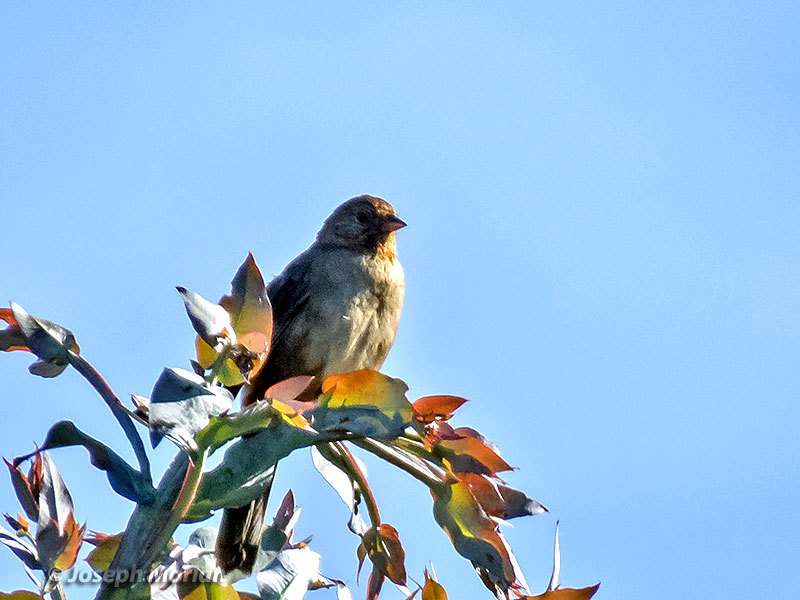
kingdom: Animalia
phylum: Chordata
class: Aves
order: Passeriformes
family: Passerellidae
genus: Melozone
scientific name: Melozone crissalis
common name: California towhee
